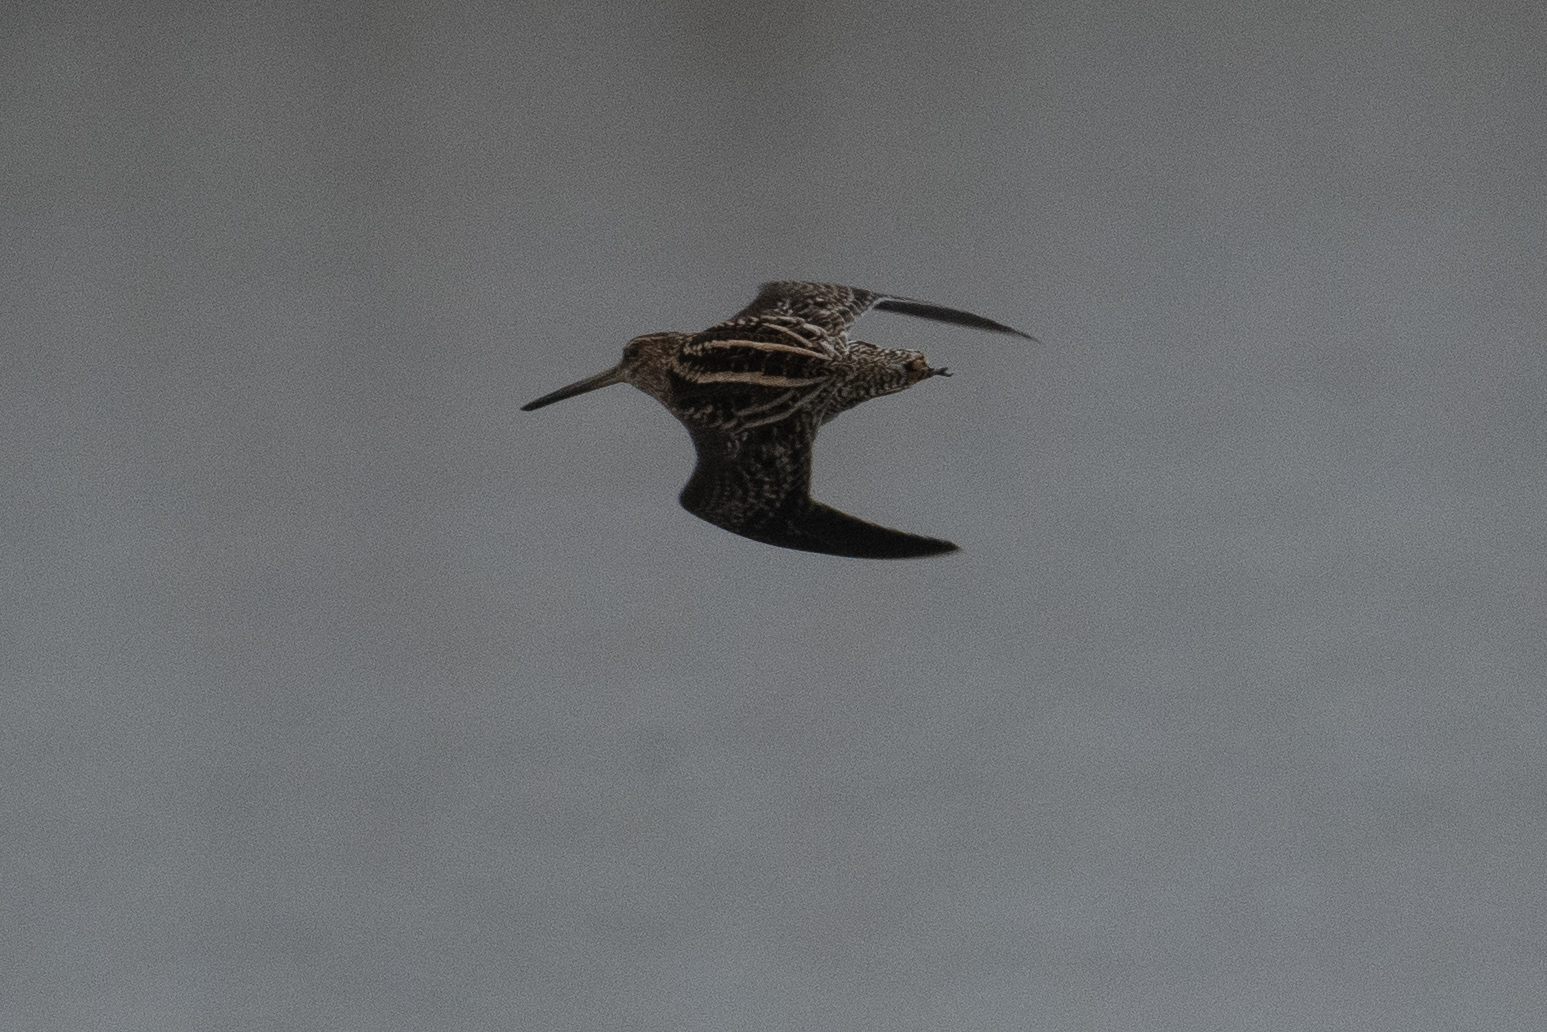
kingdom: Animalia
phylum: Chordata
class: Aves
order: Charadriiformes
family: Scolopacidae
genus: Gallinago
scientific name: Gallinago delicata
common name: Wilson's snipe
